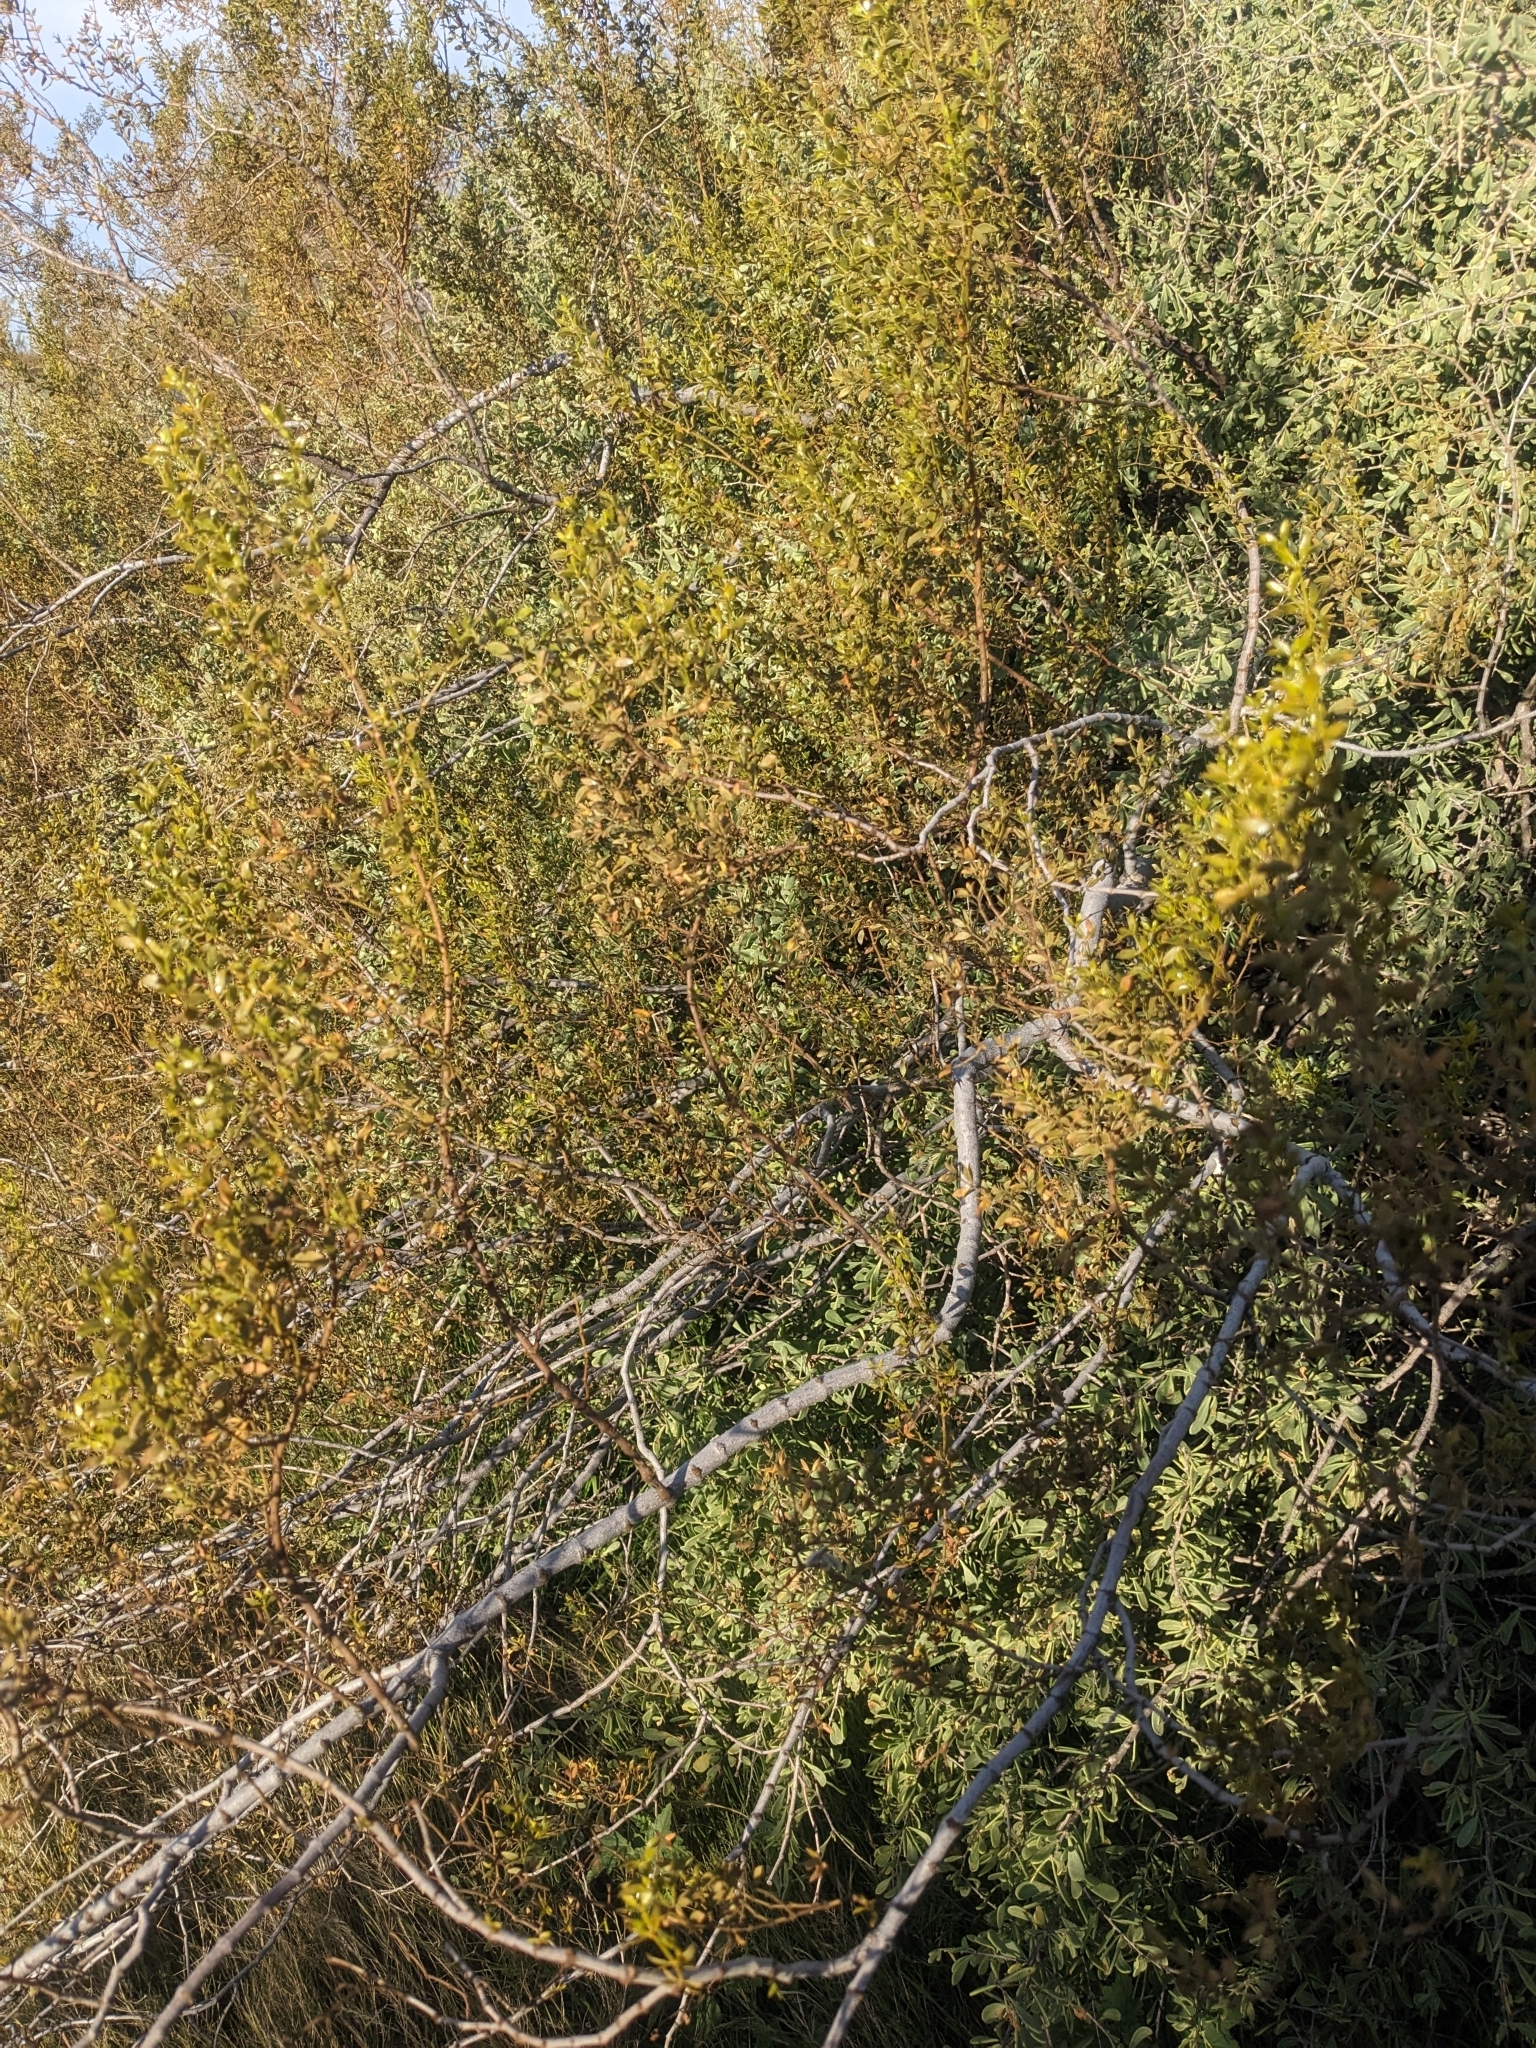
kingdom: Plantae
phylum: Tracheophyta
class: Magnoliopsida
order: Zygophyllales
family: Zygophyllaceae
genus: Larrea
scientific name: Larrea tridentata
